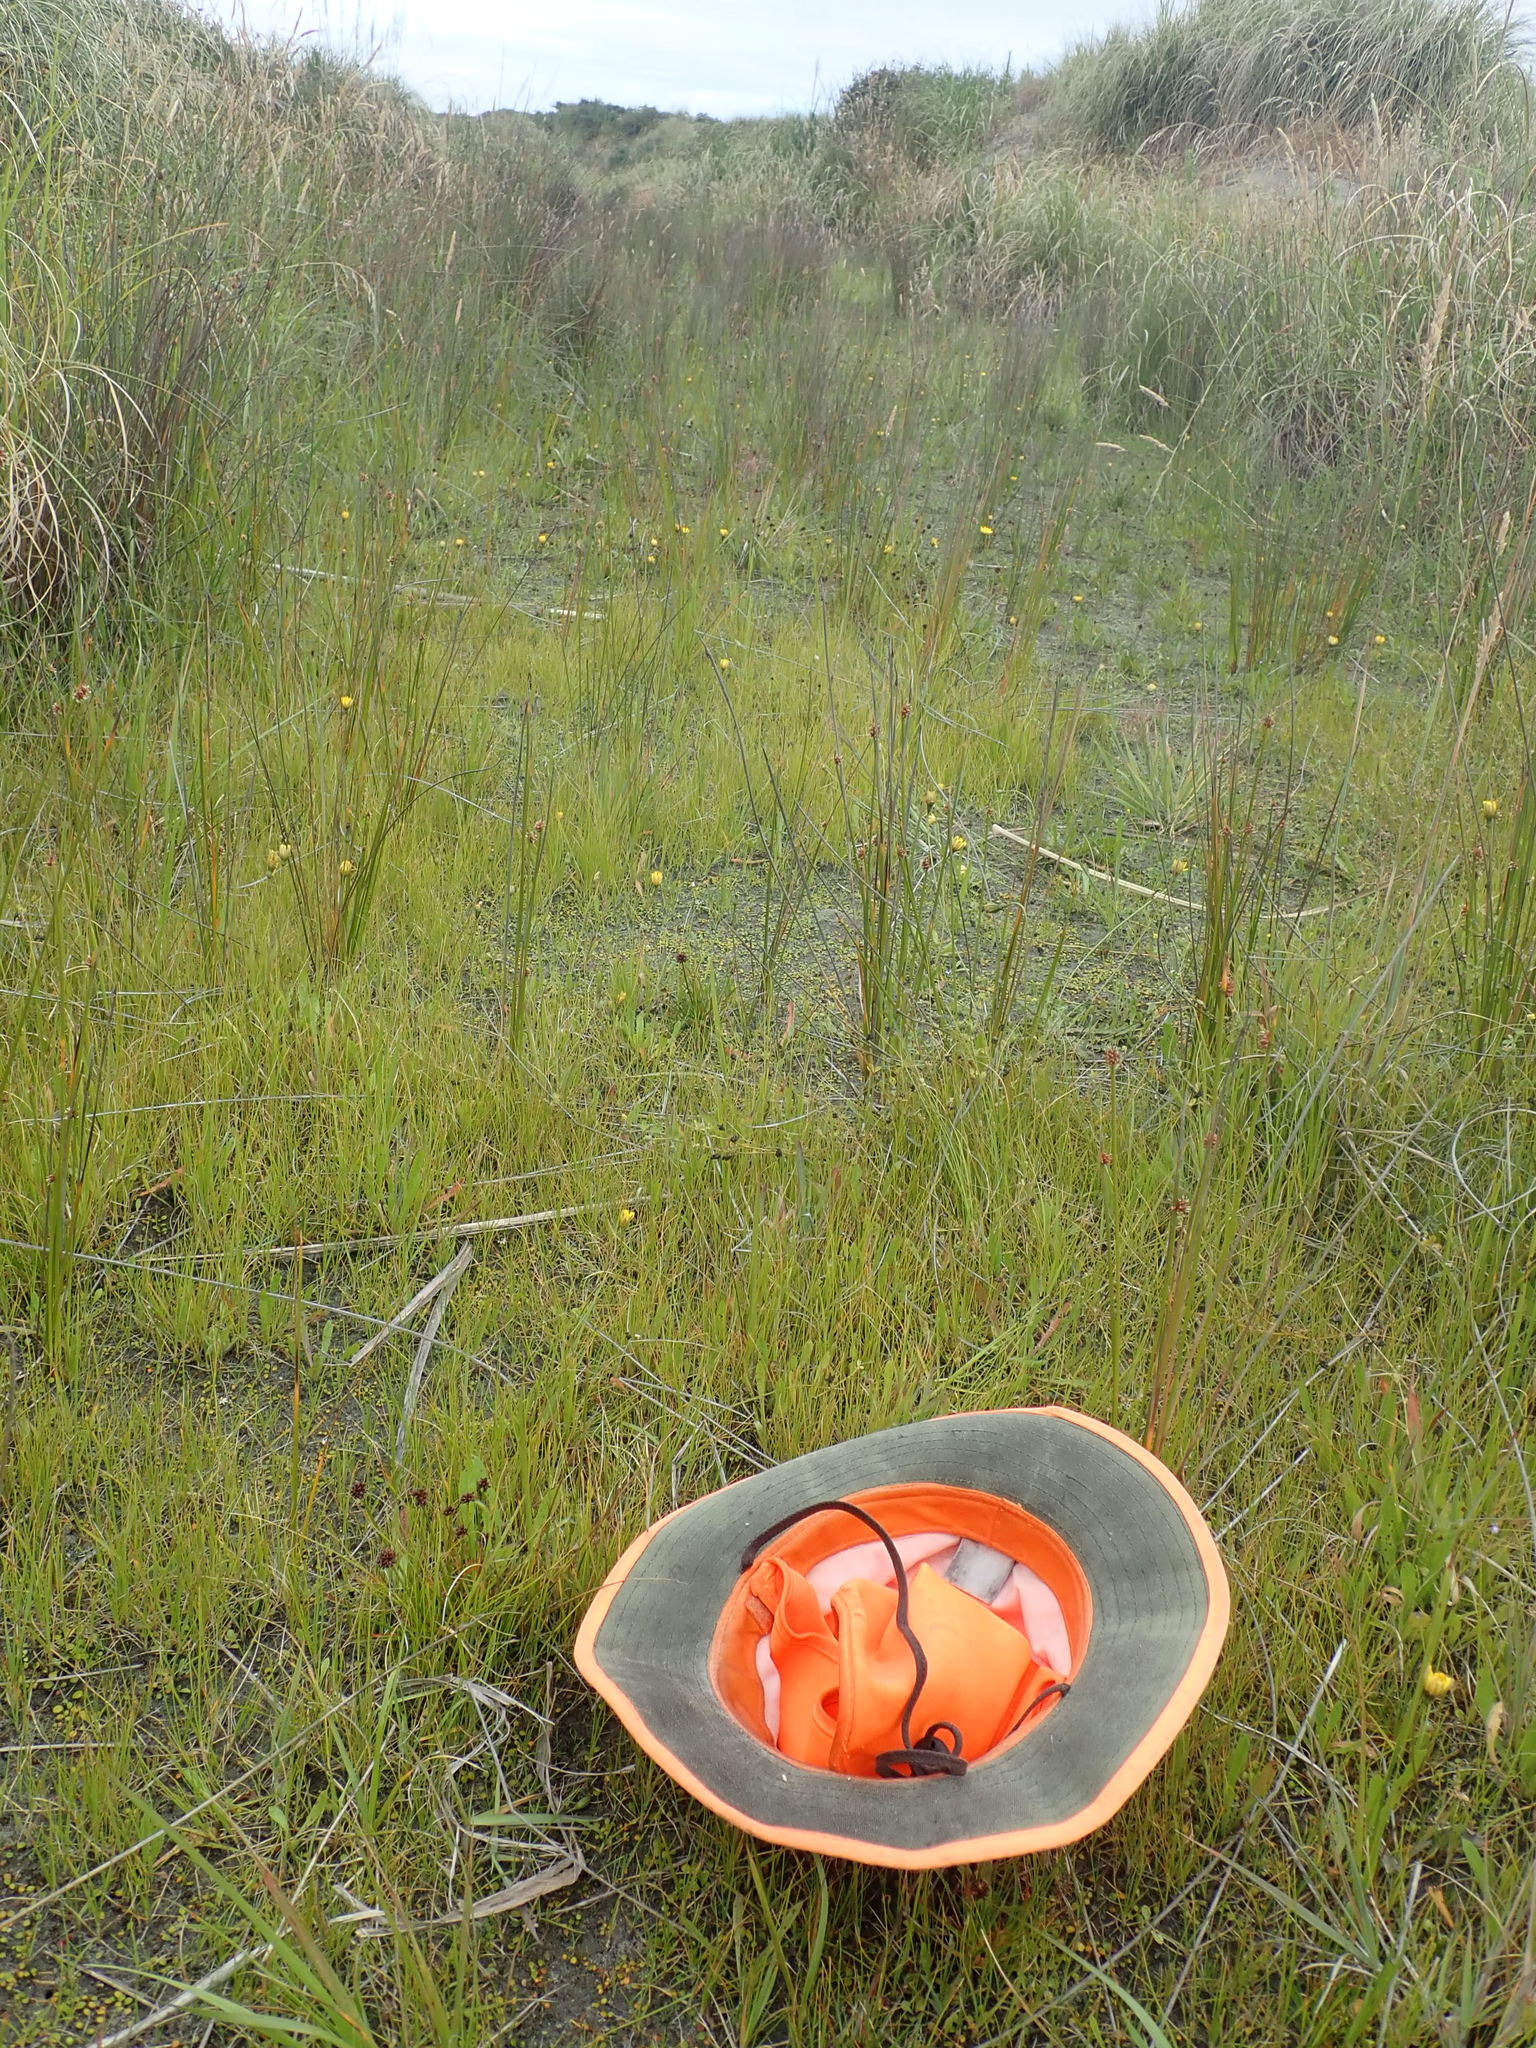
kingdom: Plantae
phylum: Tracheophyta
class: Liliopsida
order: Poales
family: Juncaceae
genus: Juncus
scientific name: Juncus caespiticius
